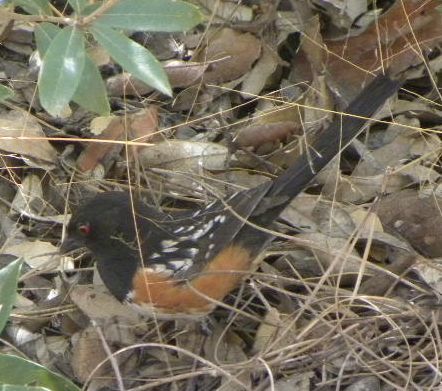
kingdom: Animalia
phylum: Chordata
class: Aves
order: Passeriformes
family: Passerellidae
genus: Pipilo
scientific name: Pipilo maculatus
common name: Spotted towhee
